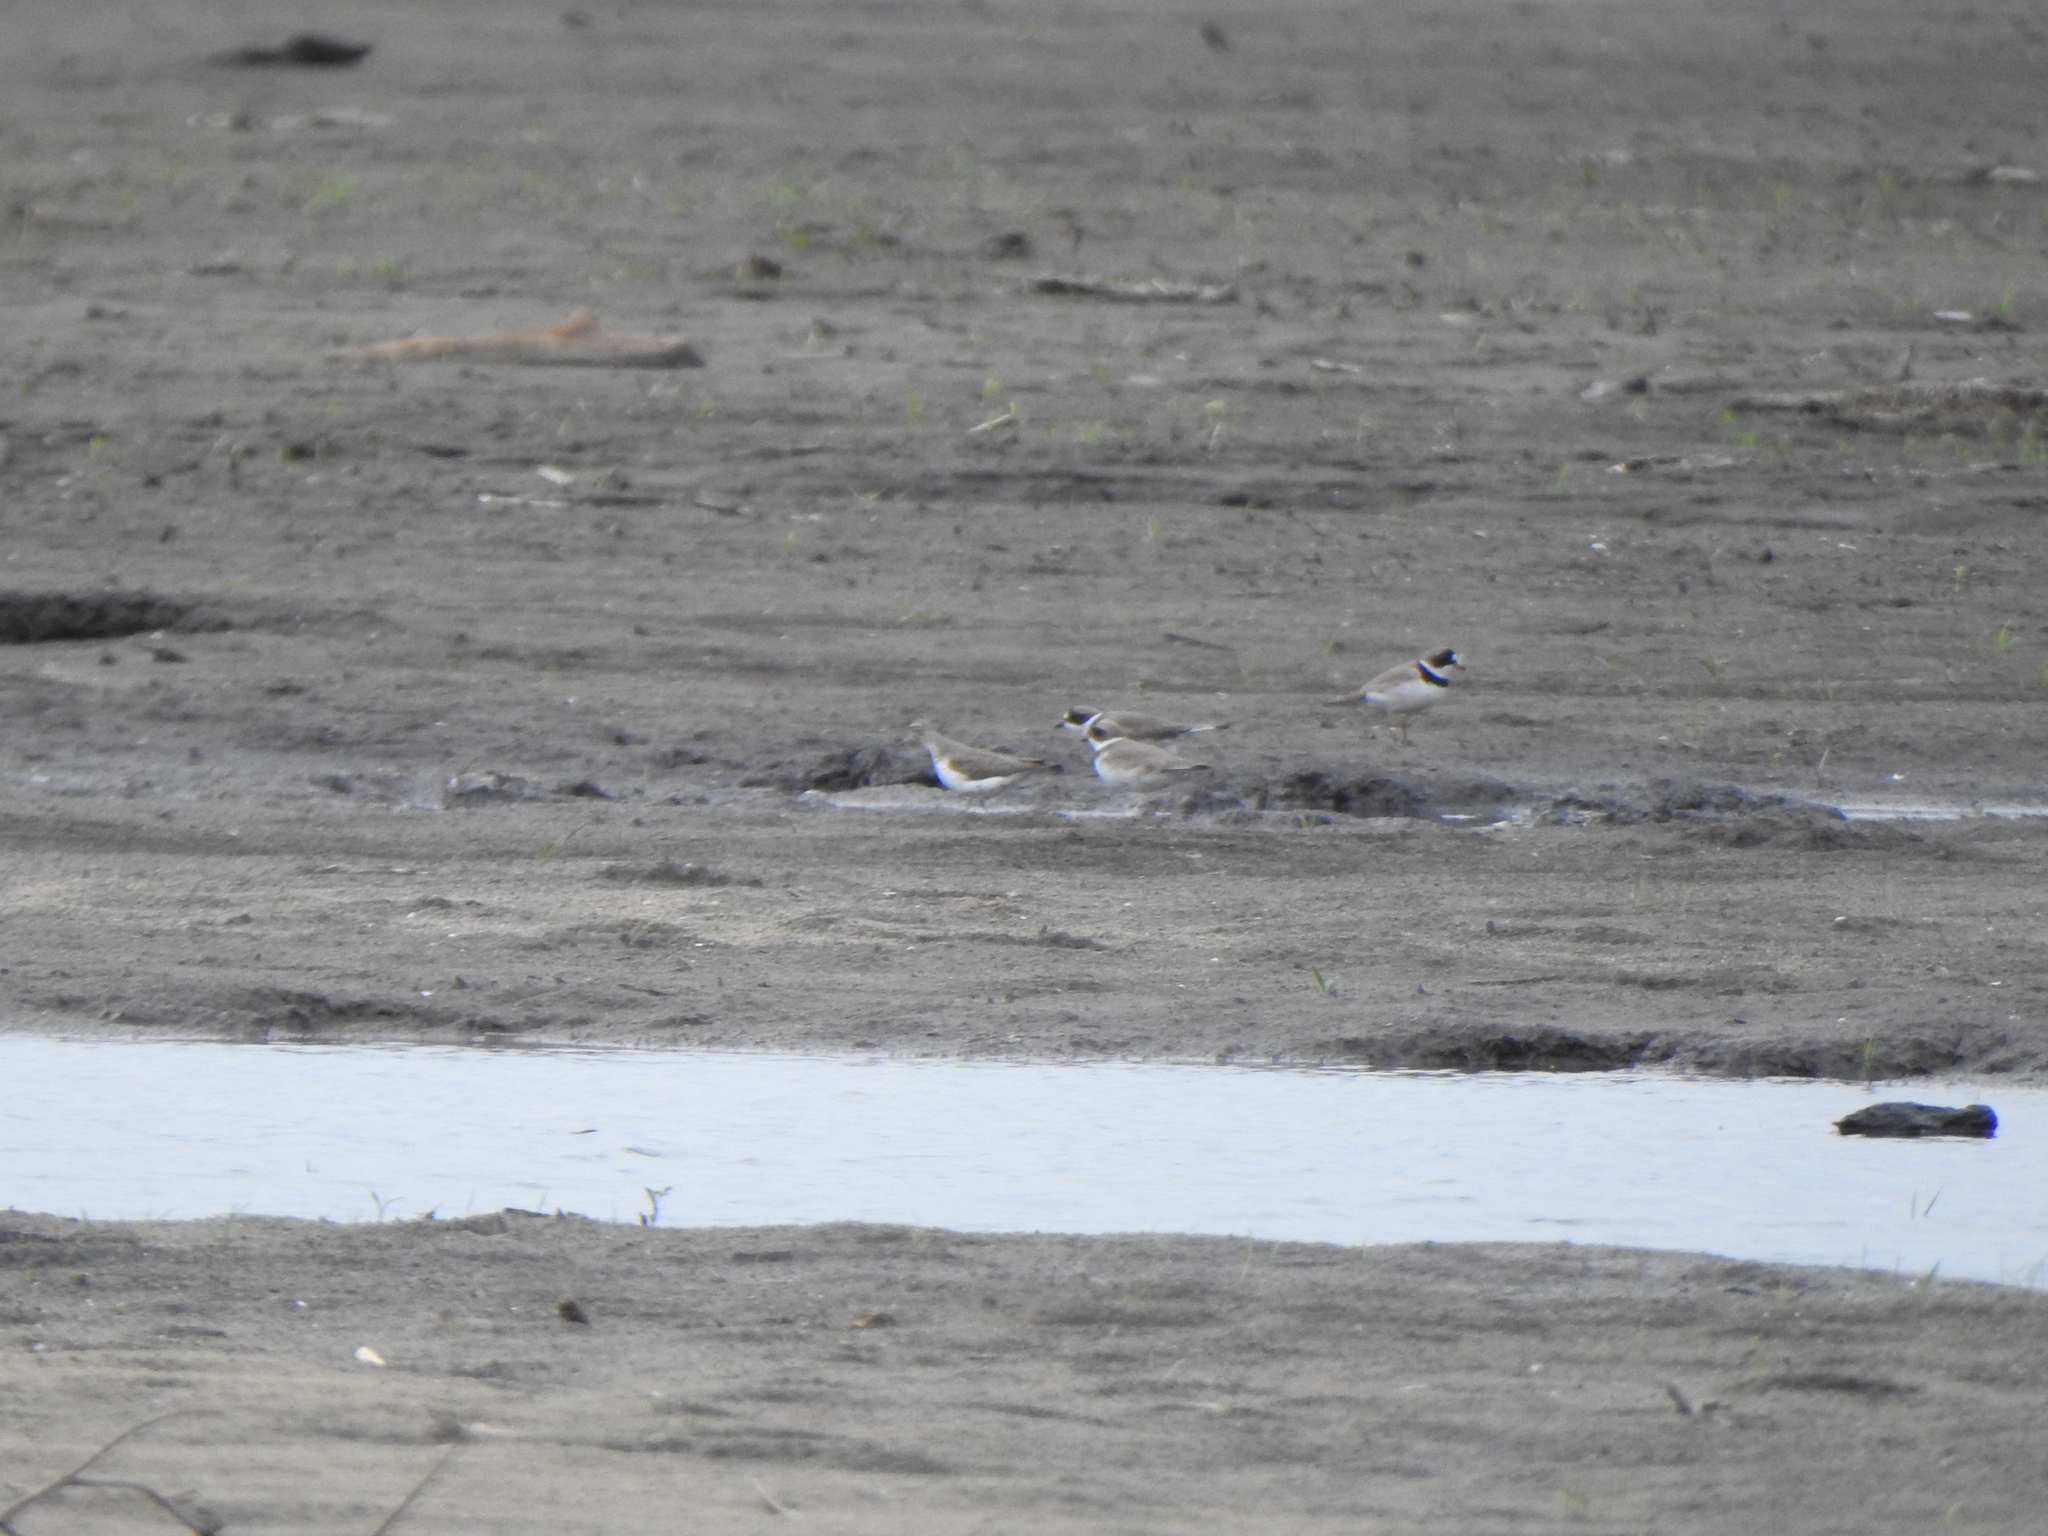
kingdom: Animalia
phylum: Chordata
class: Aves
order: Charadriiformes
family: Charadriidae
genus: Charadrius
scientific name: Charadrius semipalmatus
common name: Semipalmated plover
